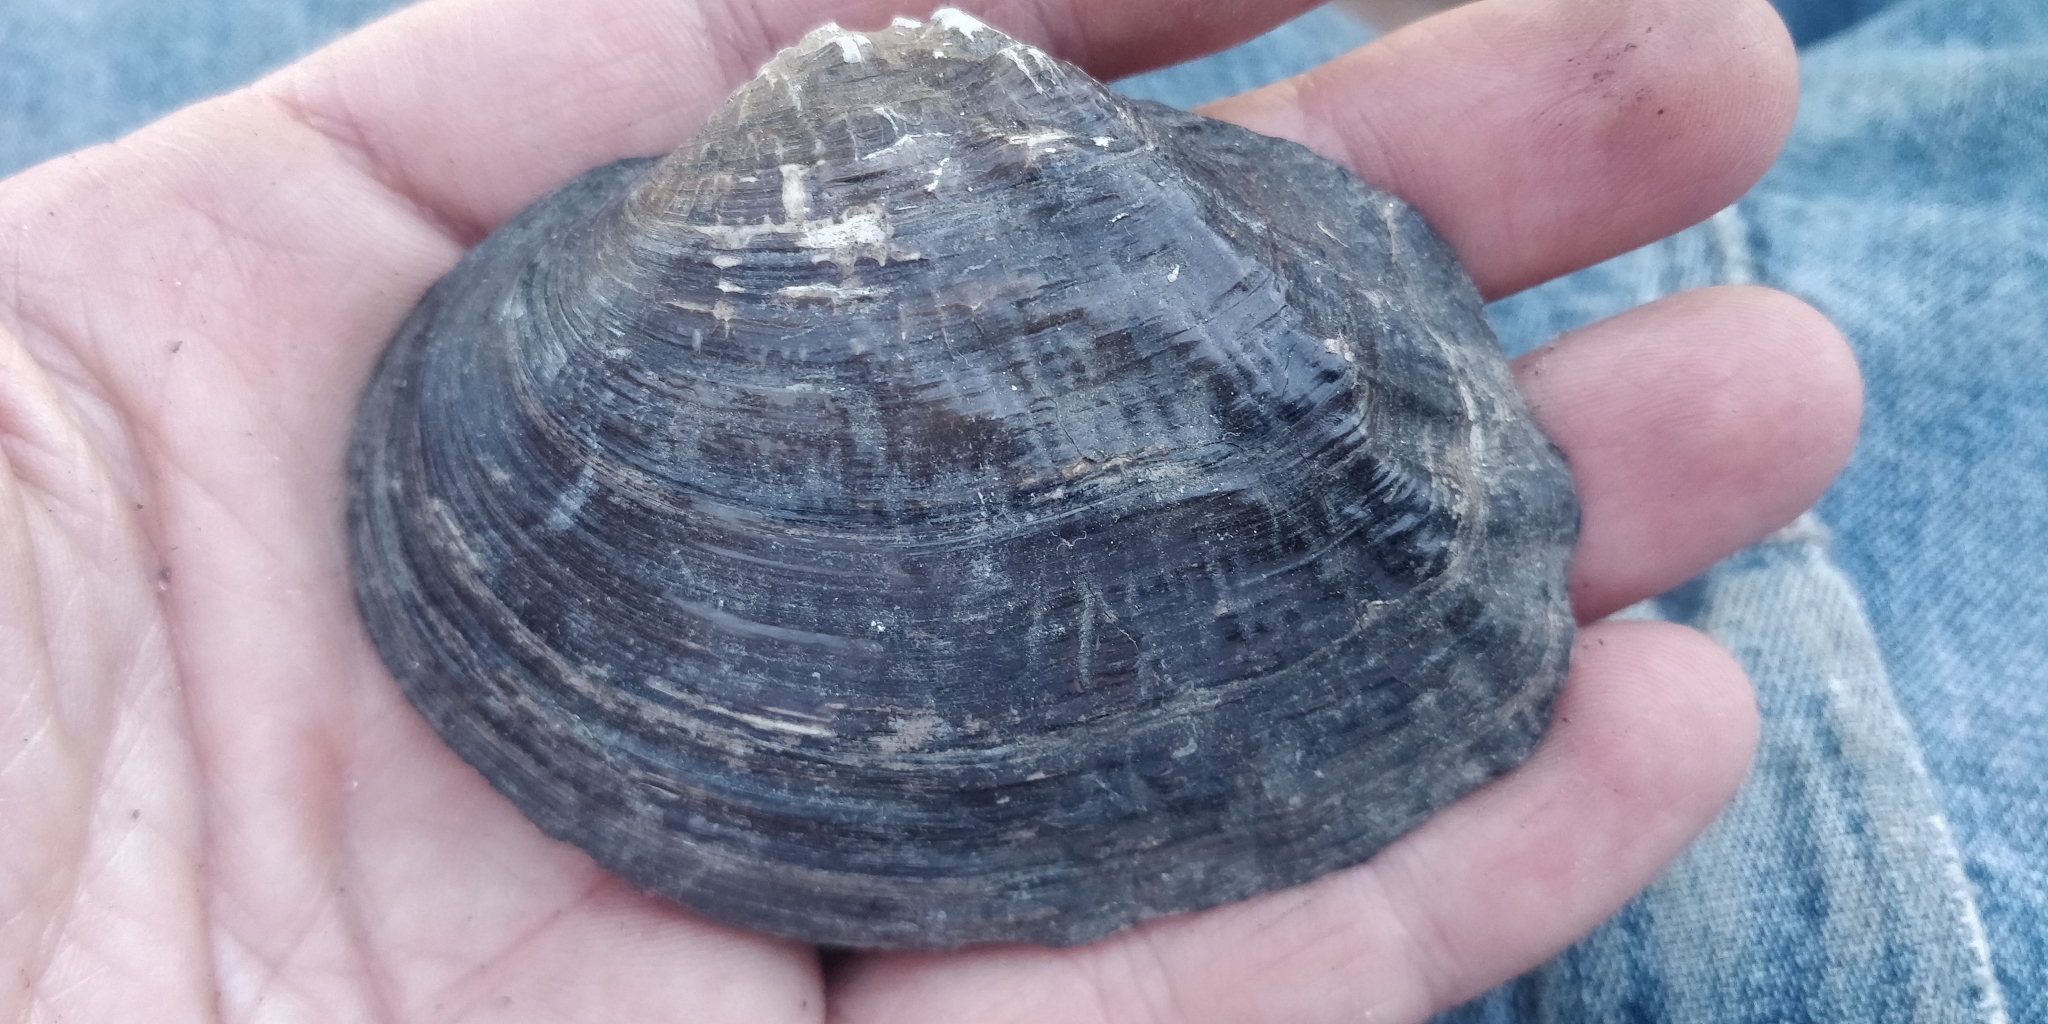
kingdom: Animalia
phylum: Mollusca
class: Bivalvia
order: Unionida
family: Unionidae
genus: Arcidens
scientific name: Arcidens confragosus
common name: Rock pocketbook
